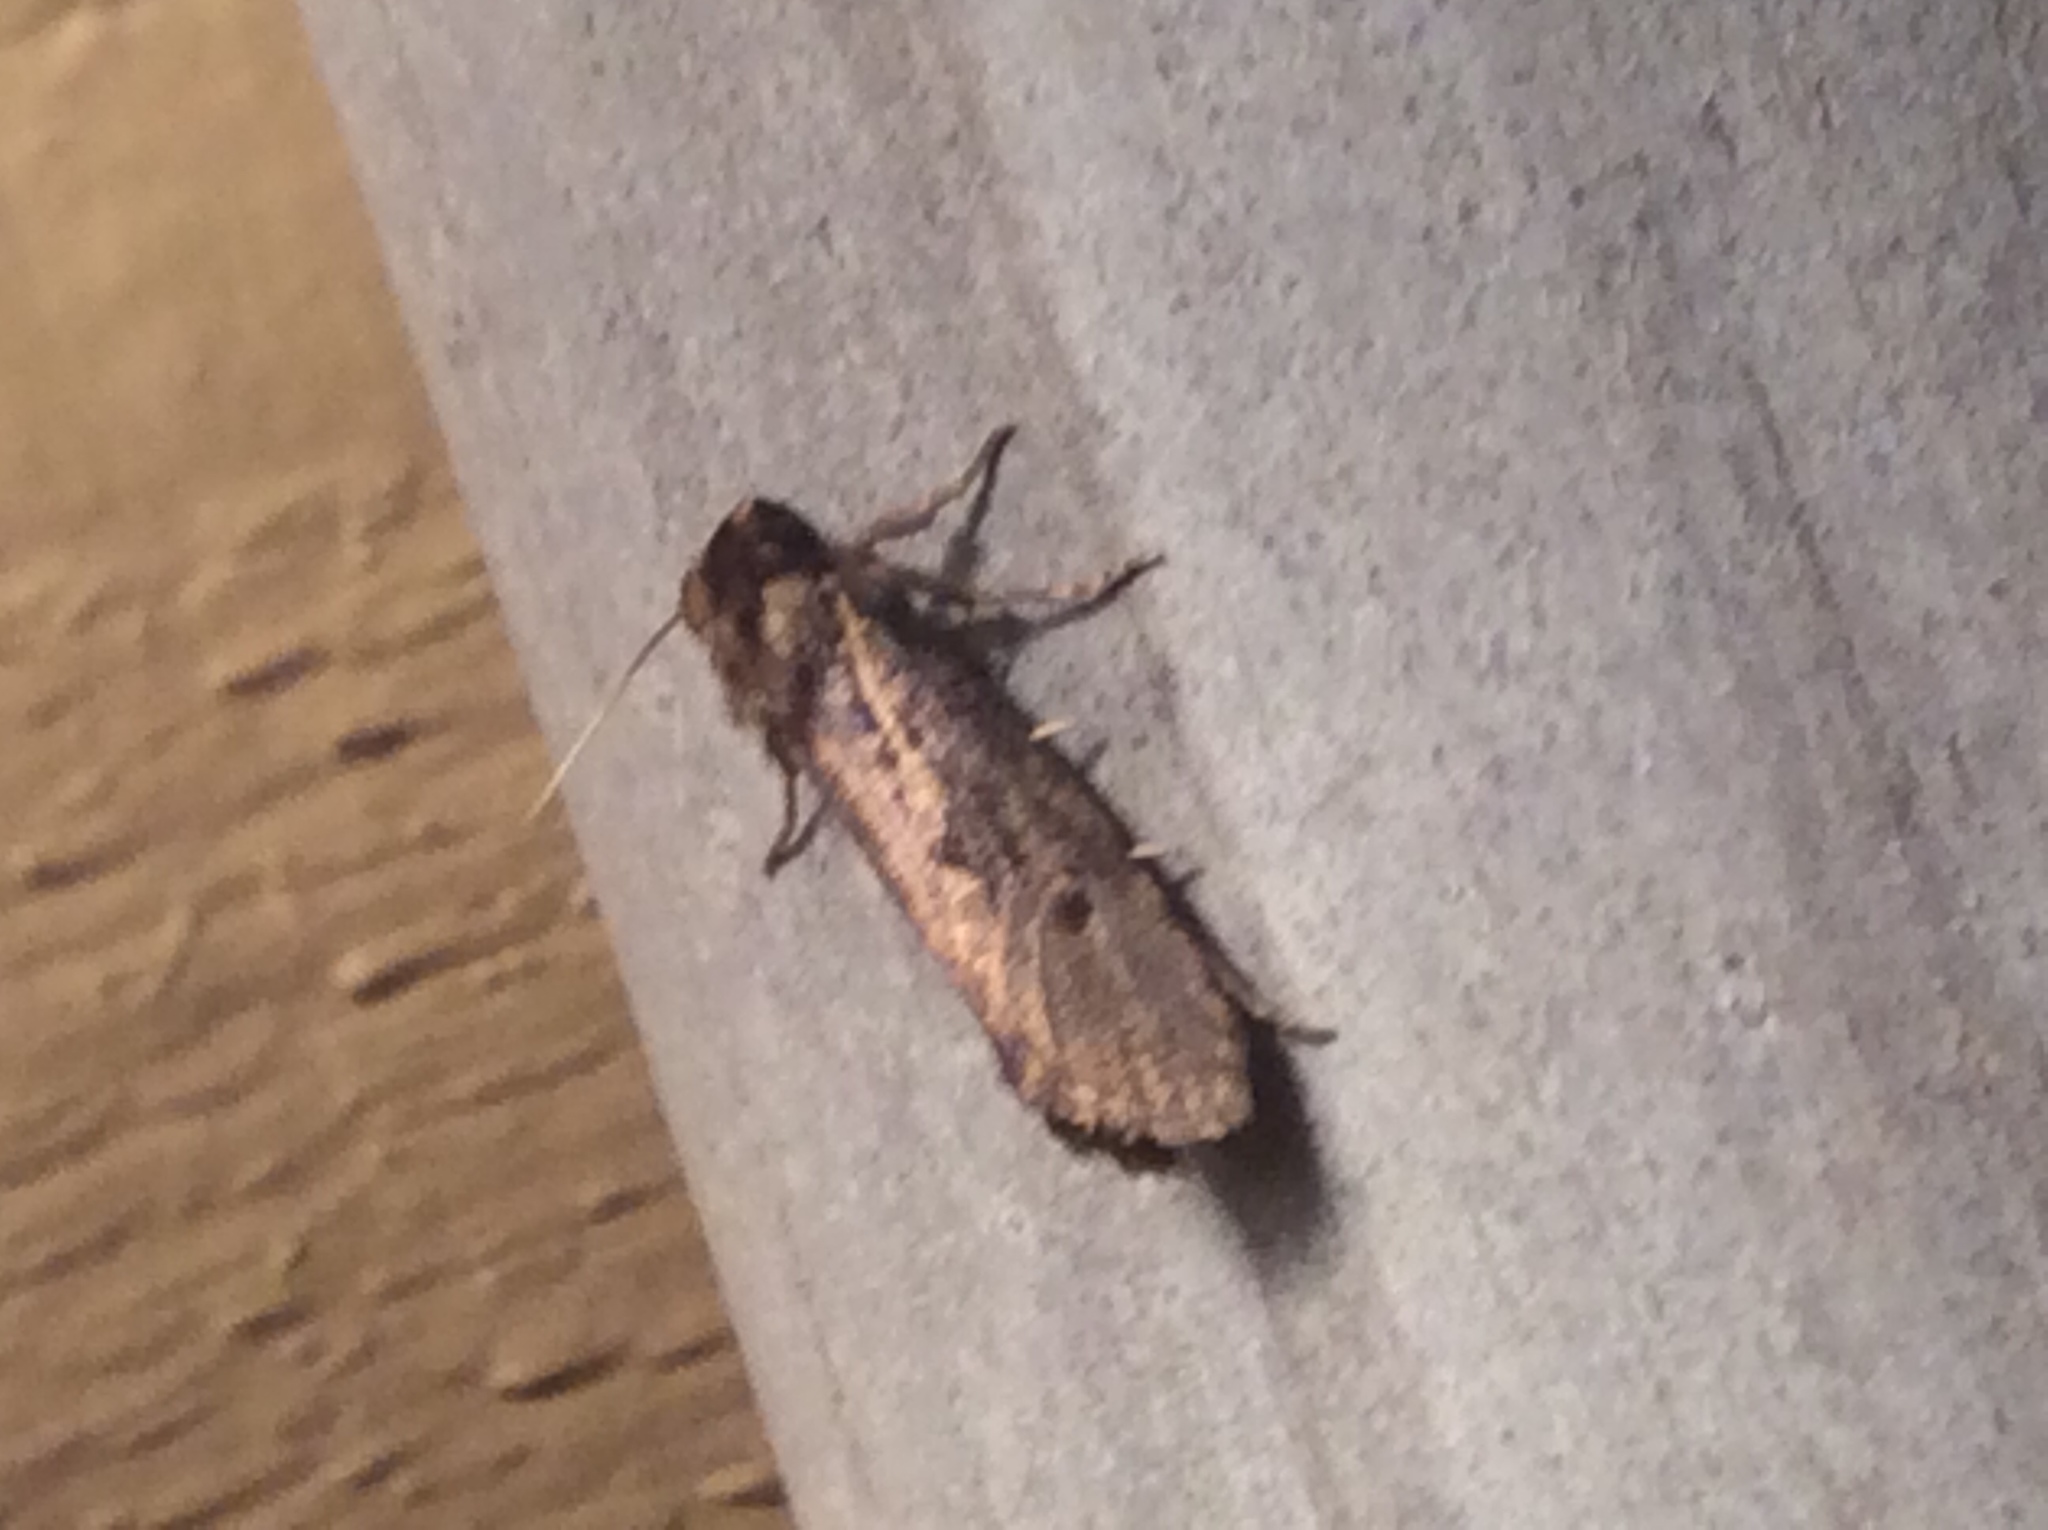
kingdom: Animalia
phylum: Arthropoda
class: Insecta
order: Lepidoptera
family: Tineidae
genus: Acrolophus
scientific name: Acrolophus popeanella
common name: Clemens' grass tubeworm moth
